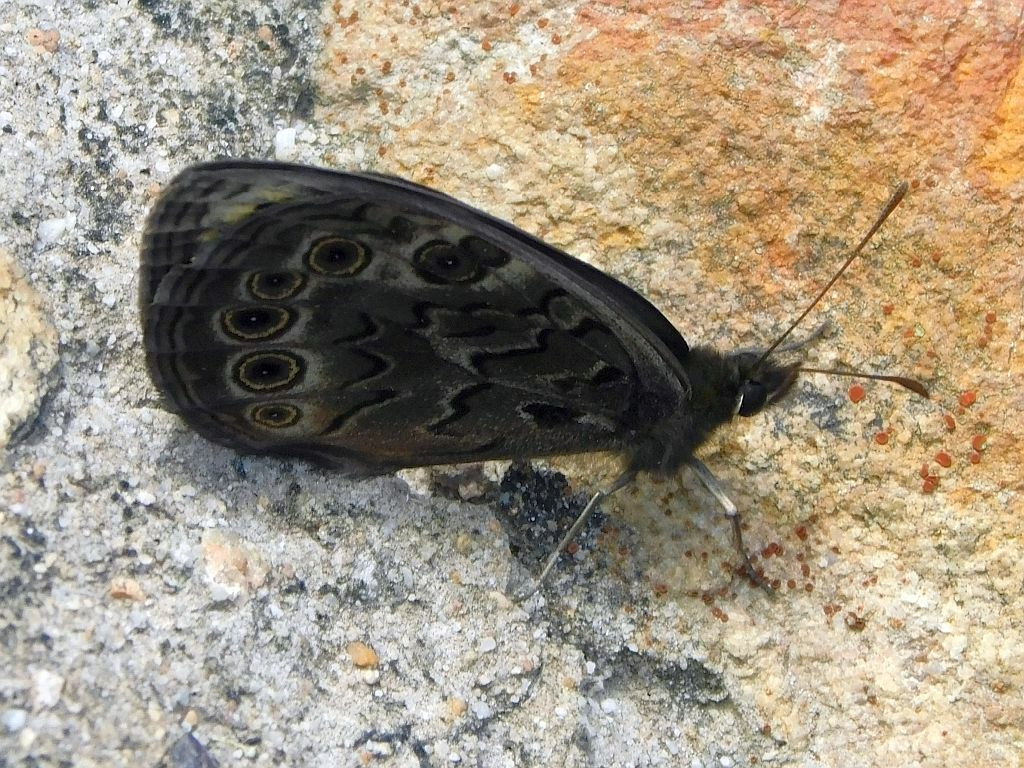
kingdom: Animalia
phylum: Arthropoda
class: Insecta
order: Lepidoptera
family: Nymphalidae
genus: Dira
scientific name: Dira clytus
